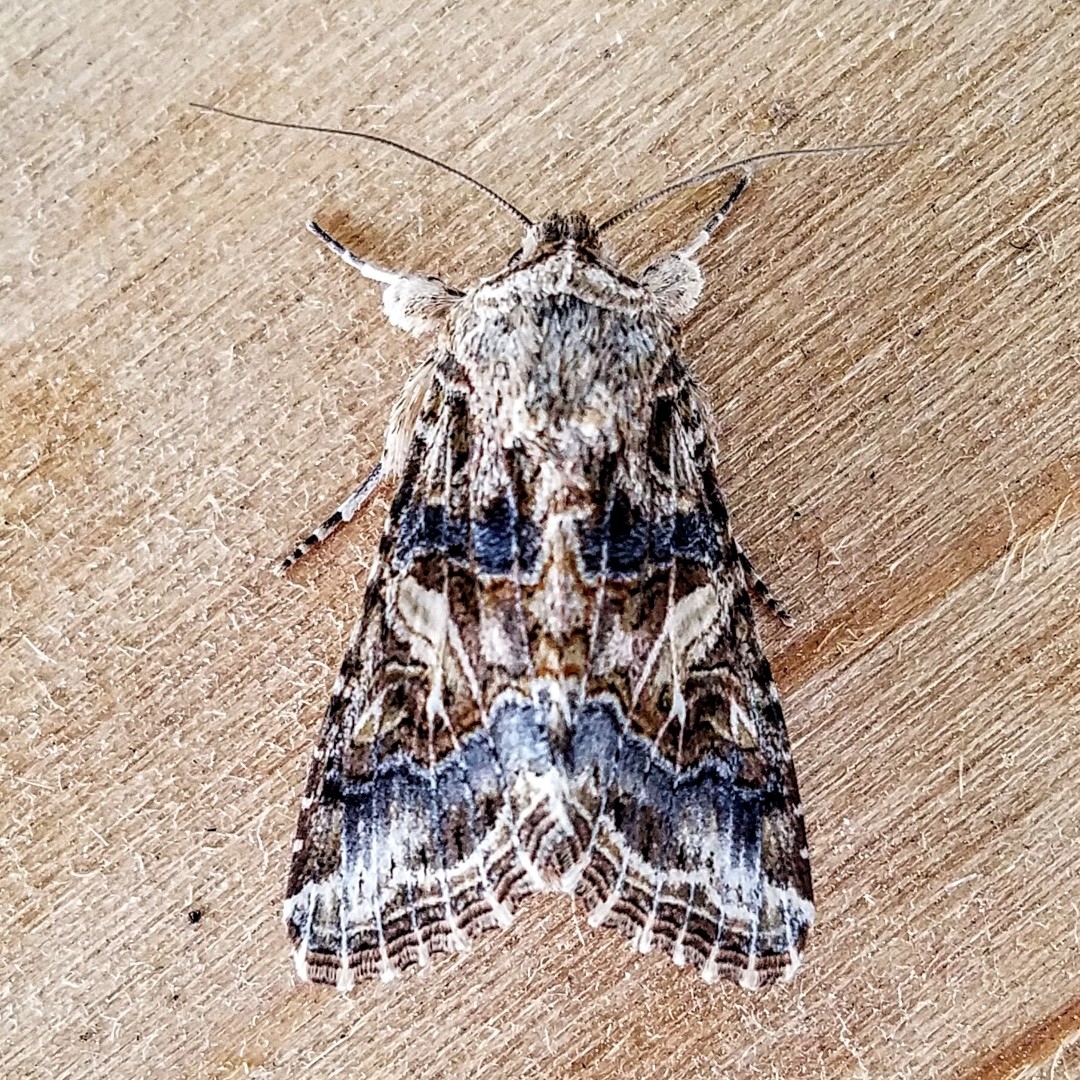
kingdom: Animalia
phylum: Arthropoda
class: Insecta
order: Lepidoptera
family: Noctuidae
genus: Spodoptera
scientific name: Spodoptera praefica
